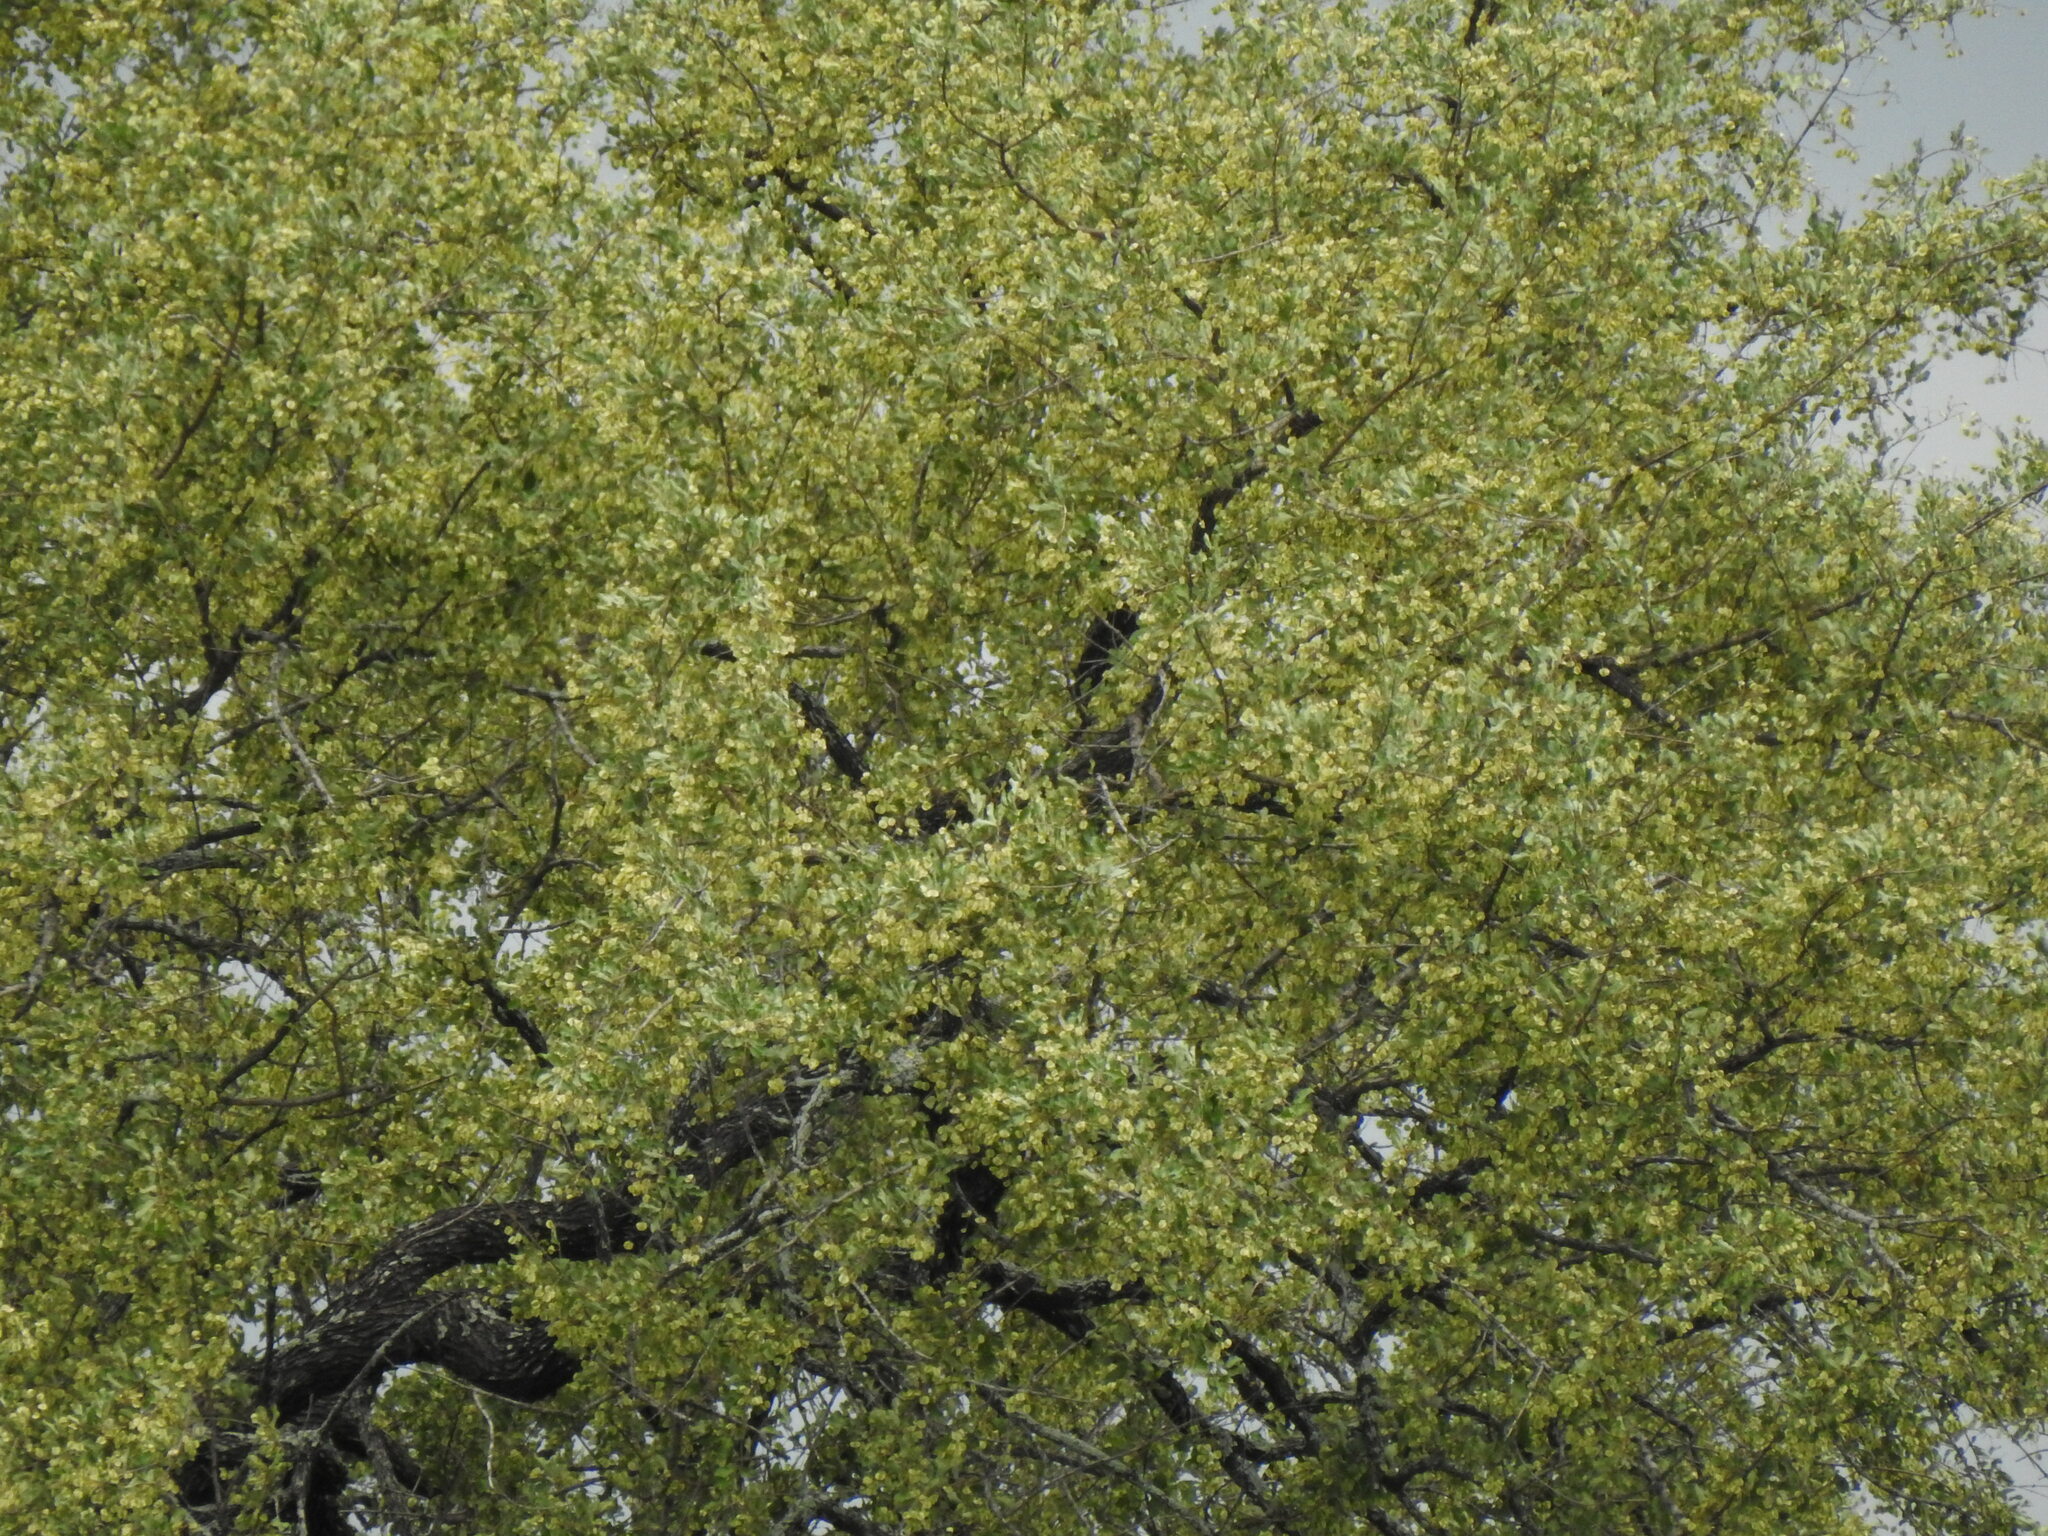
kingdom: Plantae
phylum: Tracheophyta
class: Magnoliopsida
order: Myrtales
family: Combretaceae
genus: Combretum
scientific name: Combretum imberbe
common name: Leadwood
